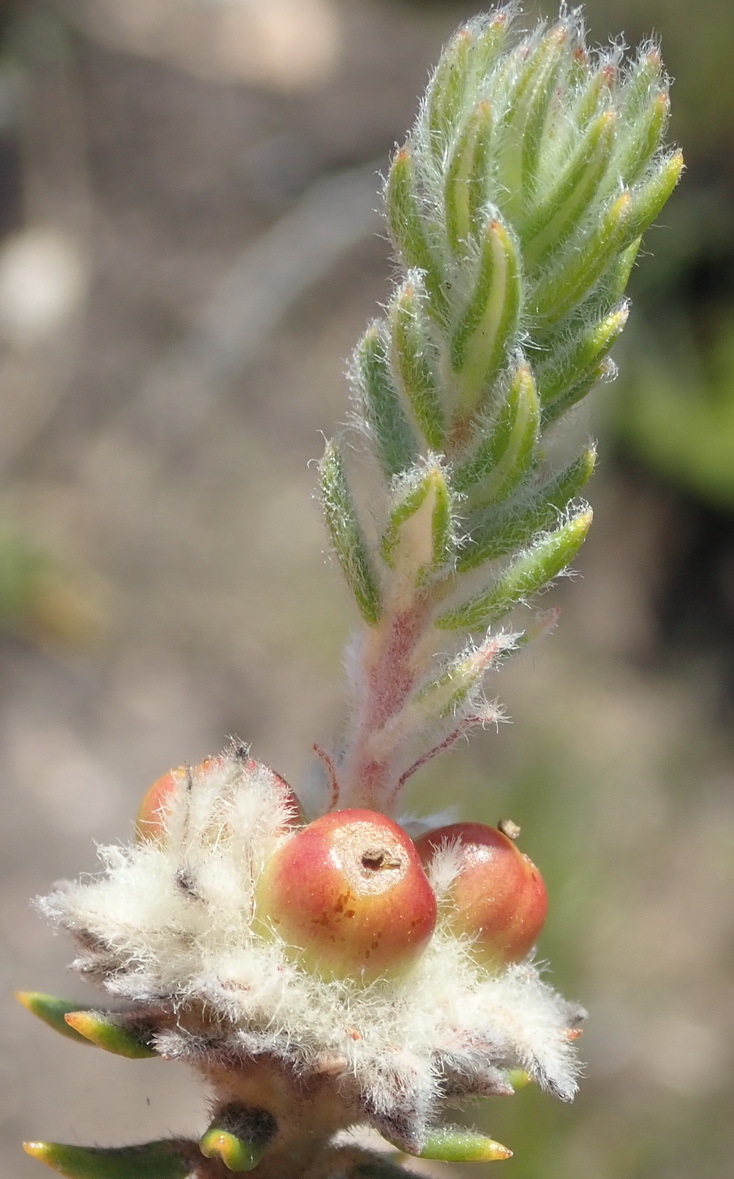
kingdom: Plantae
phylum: Tracheophyta
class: Magnoliopsida
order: Rosales
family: Rhamnaceae
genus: Phylica
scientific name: Phylica propinqua
